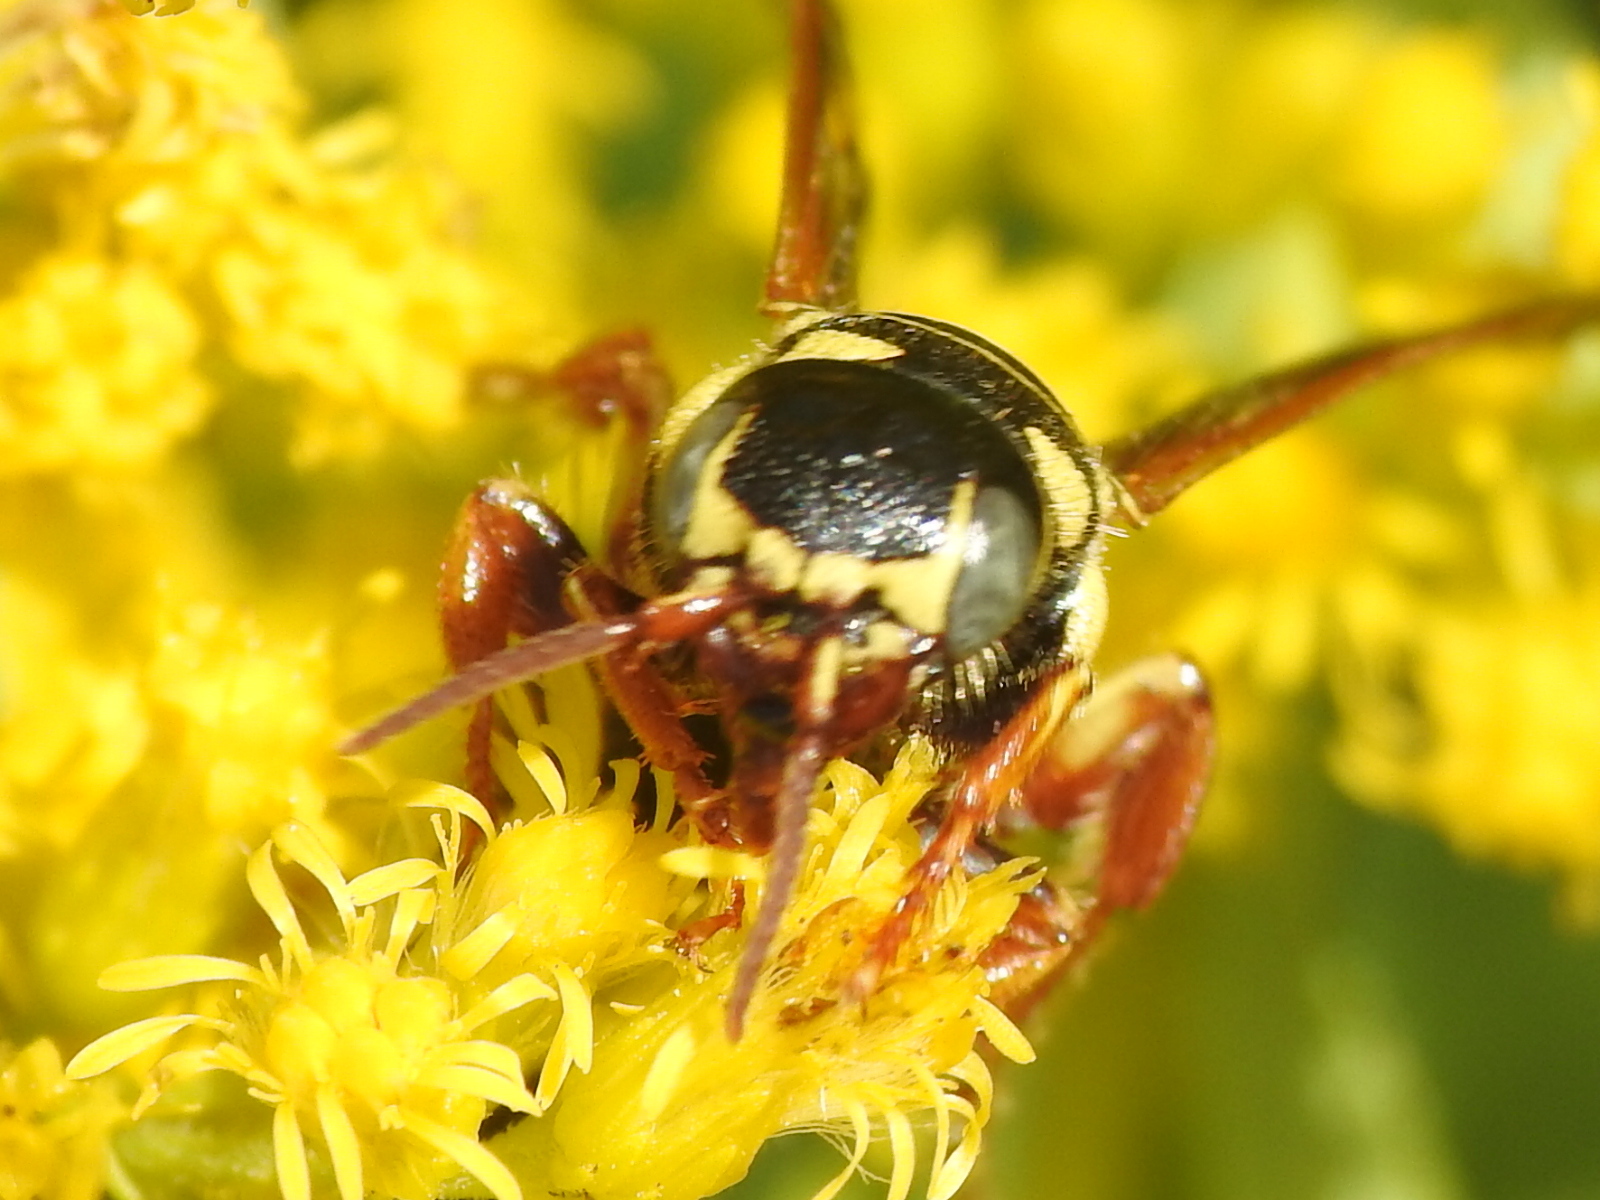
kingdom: Animalia
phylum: Arthropoda
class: Insecta
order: Hymenoptera
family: Tiphiidae
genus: Myzinum
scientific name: Myzinum quinquecinctum
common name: Five-banded thynnid wasp
